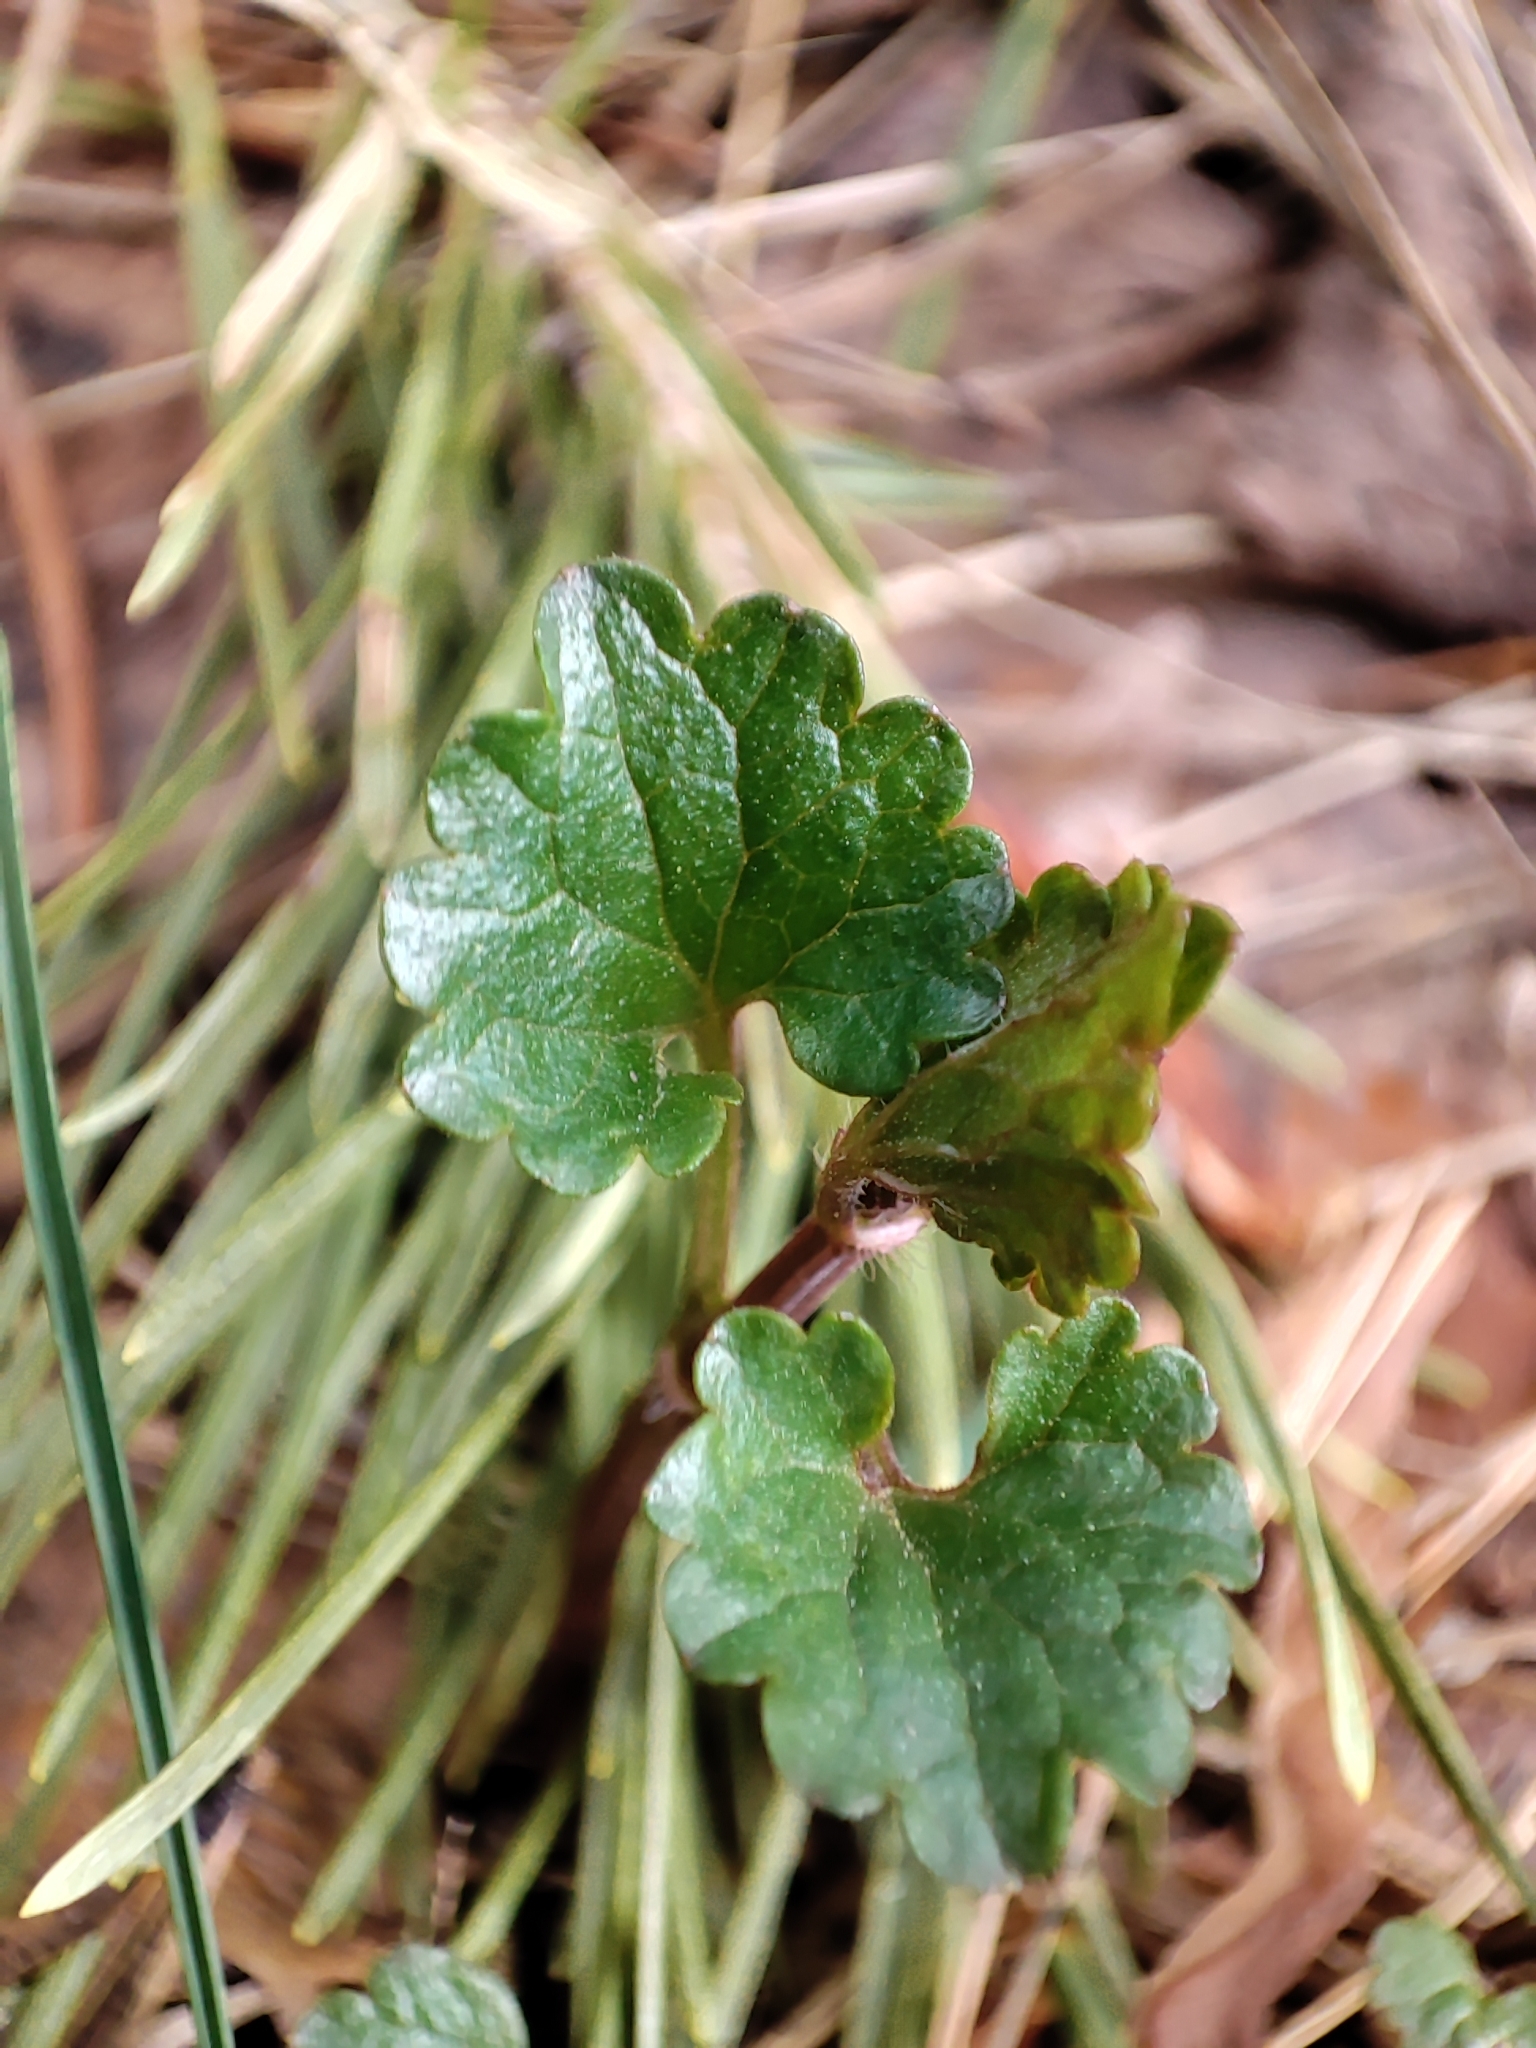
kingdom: Plantae
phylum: Tracheophyta
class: Magnoliopsida
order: Lamiales
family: Lamiaceae
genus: Glechoma
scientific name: Glechoma hederacea
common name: Ground ivy
